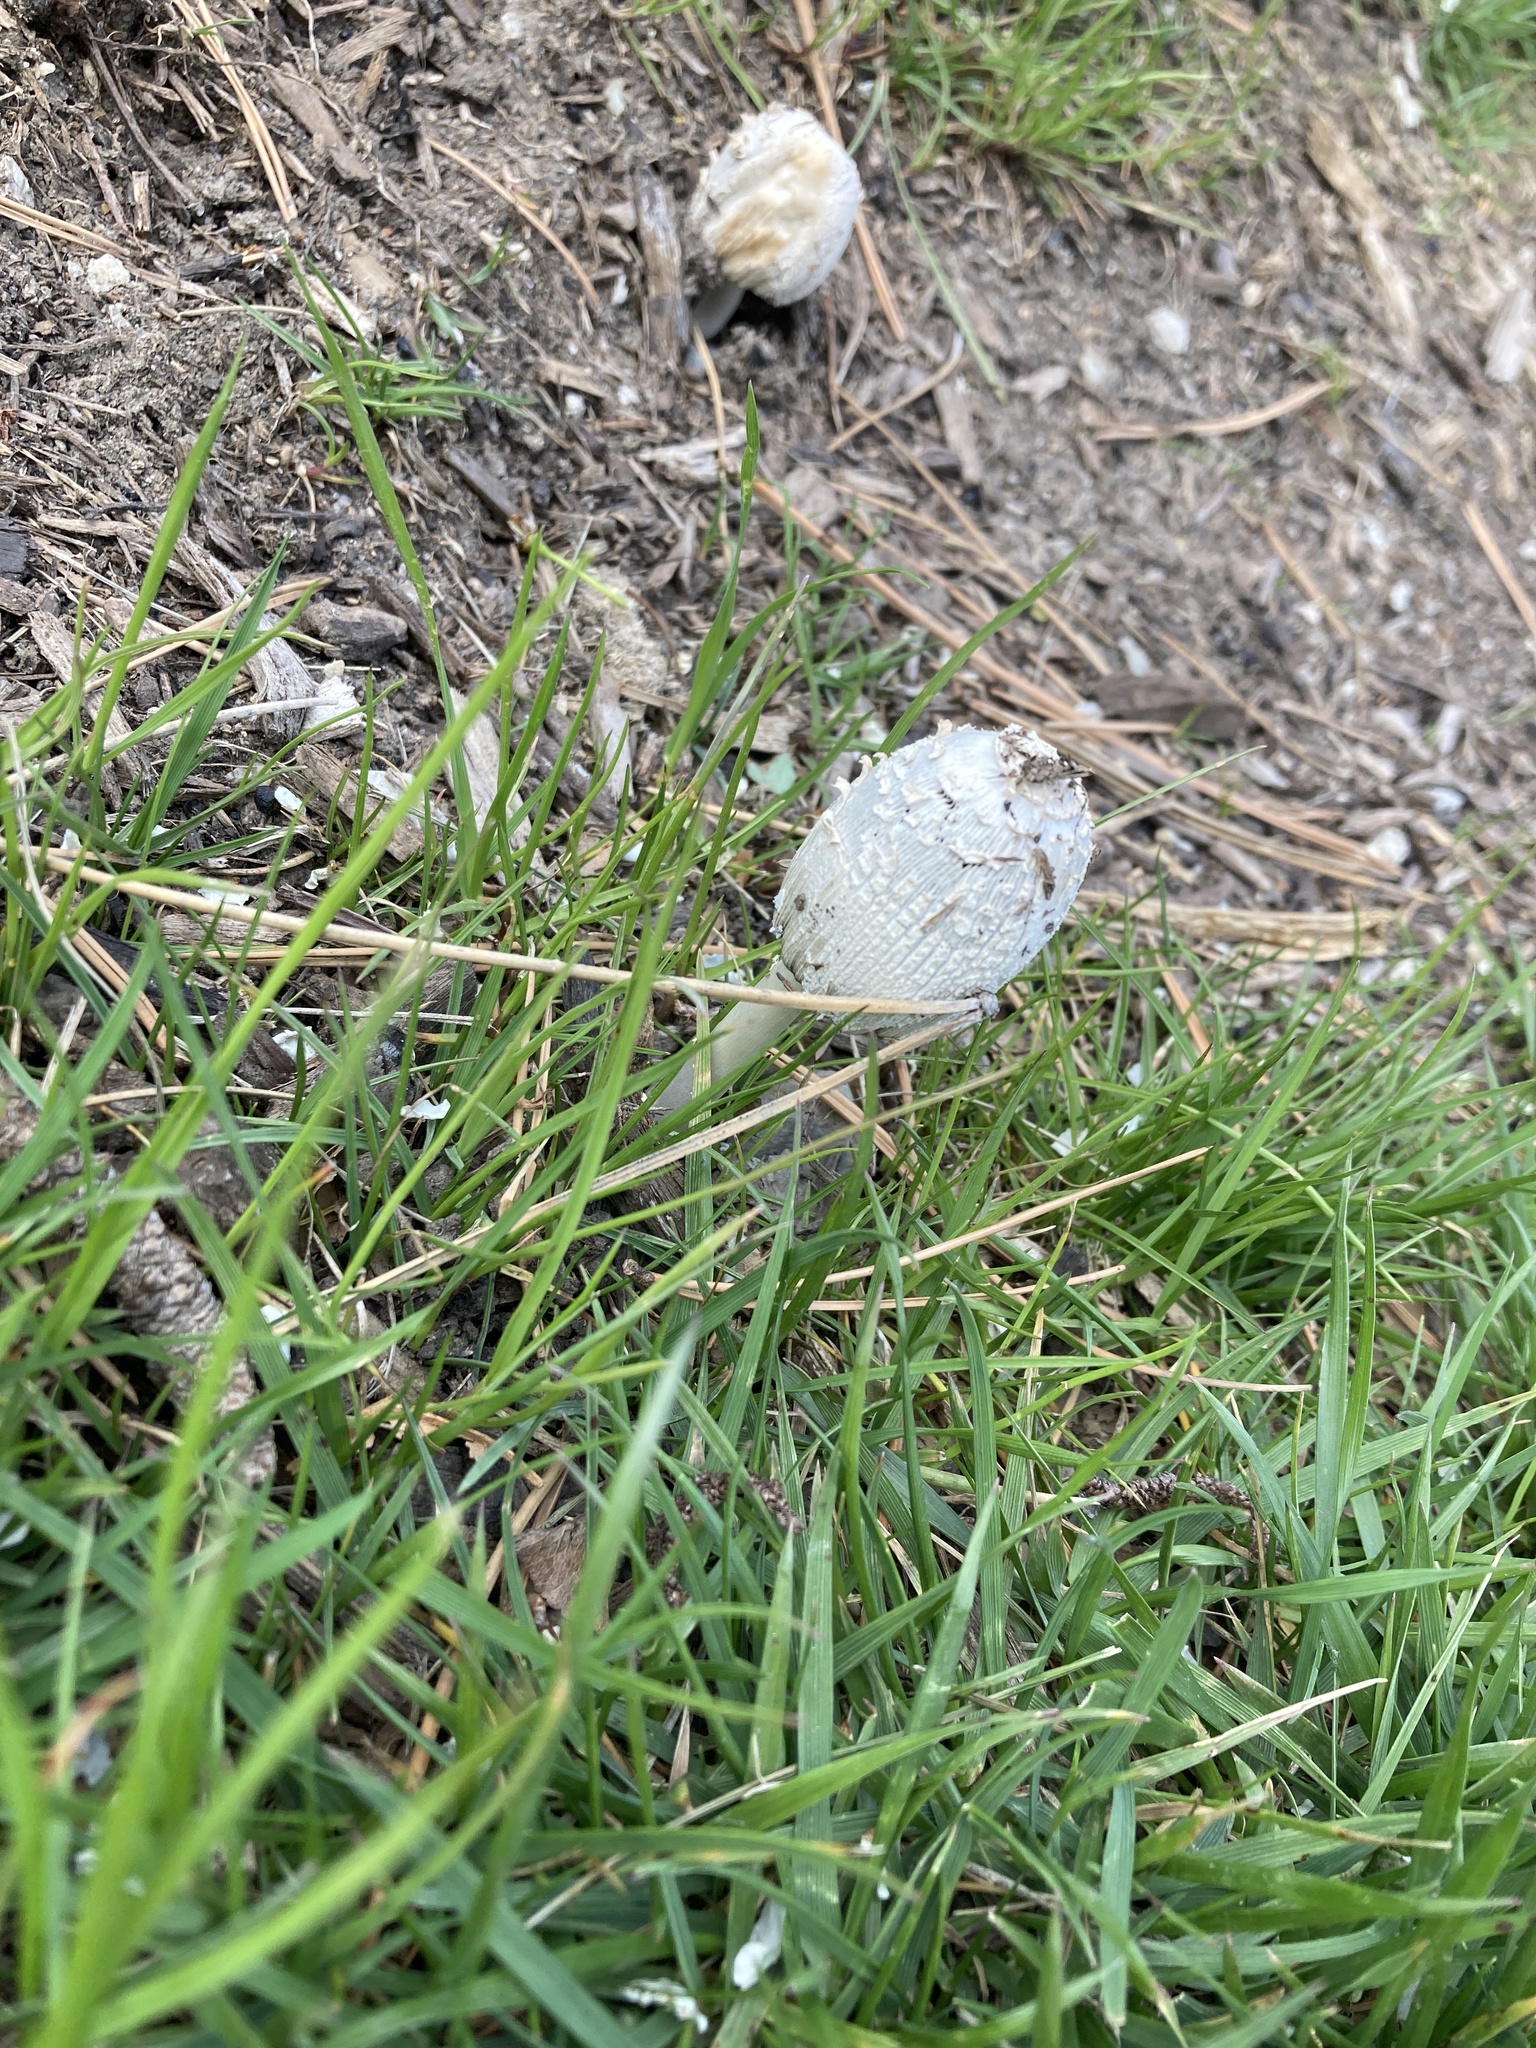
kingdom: Fungi
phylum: Basidiomycota
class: Agaricomycetes
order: Agaricales
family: Agaricaceae
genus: Coprinus
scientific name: Coprinus comatus
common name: Lawyer's wig
